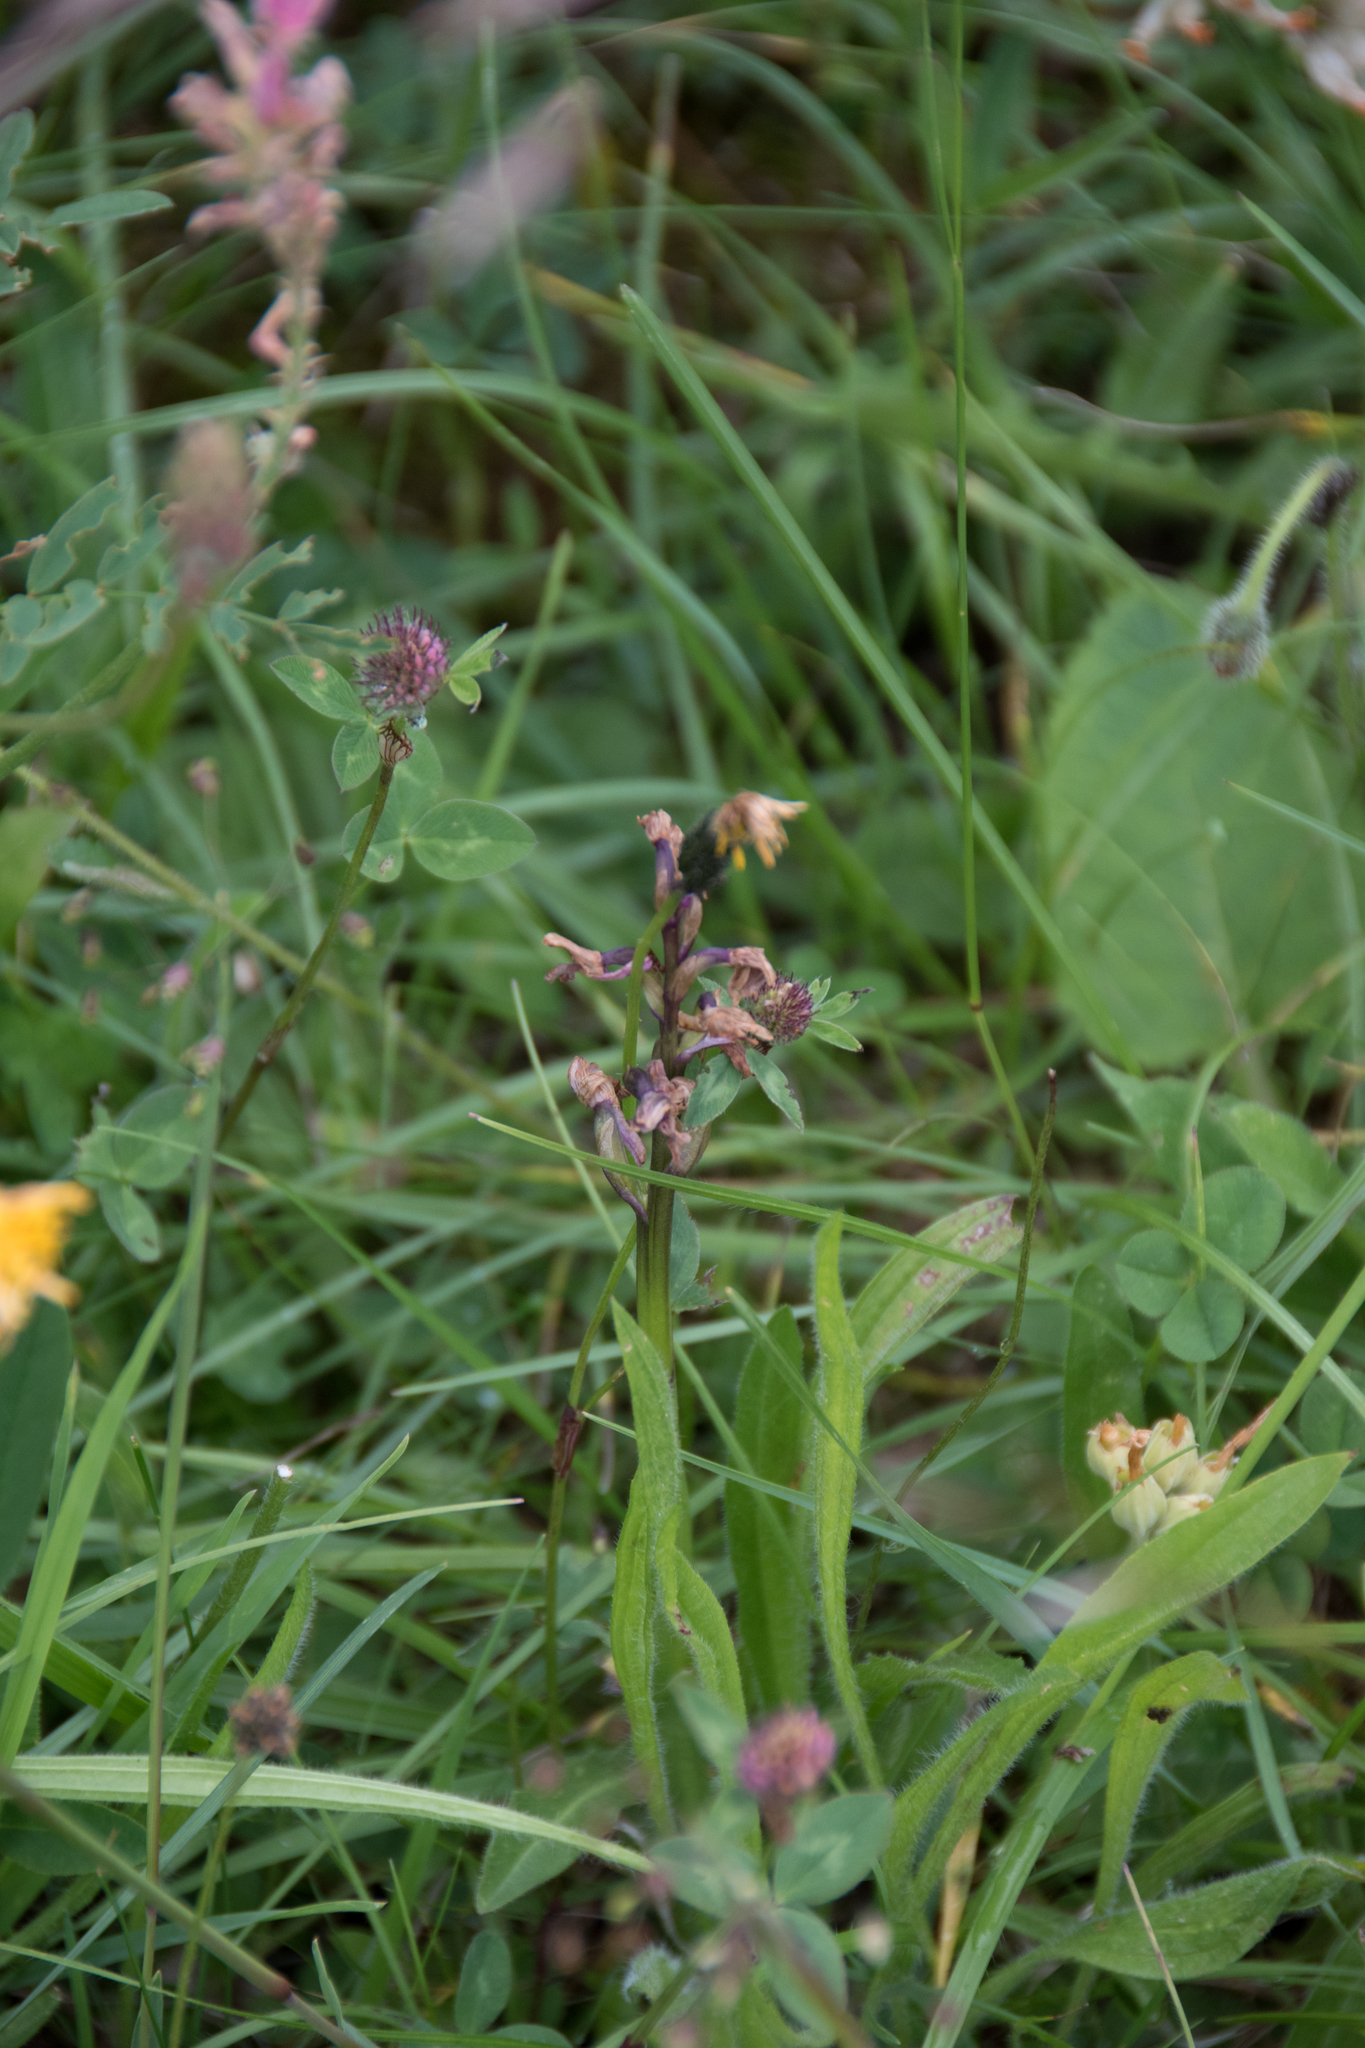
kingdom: Plantae
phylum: Tracheophyta
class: Liliopsida
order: Asparagales
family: Orchidaceae
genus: Anacamptis
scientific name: Anacamptis morio
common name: Green-winged orchid
